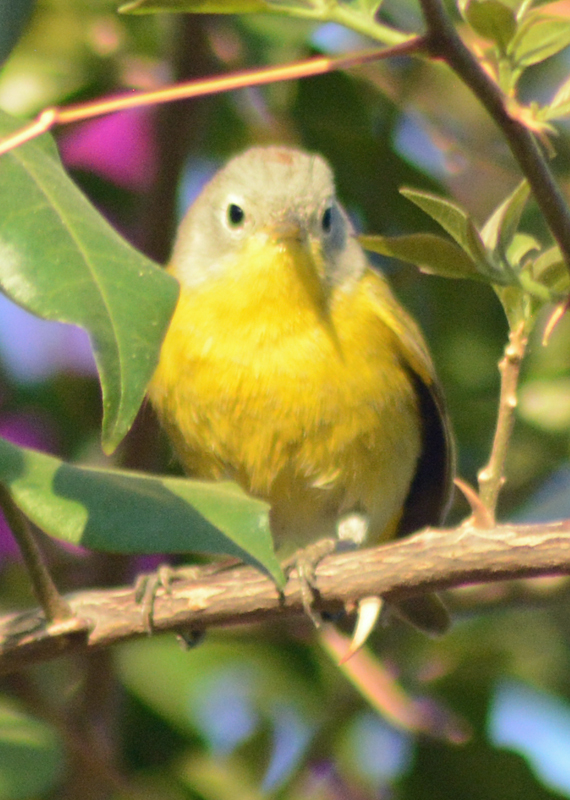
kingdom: Animalia
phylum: Chordata
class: Aves
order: Passeriformes
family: Parulidae
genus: Leiothlypis
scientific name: Leiothlypis ruficapilla
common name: Nashville warbler
